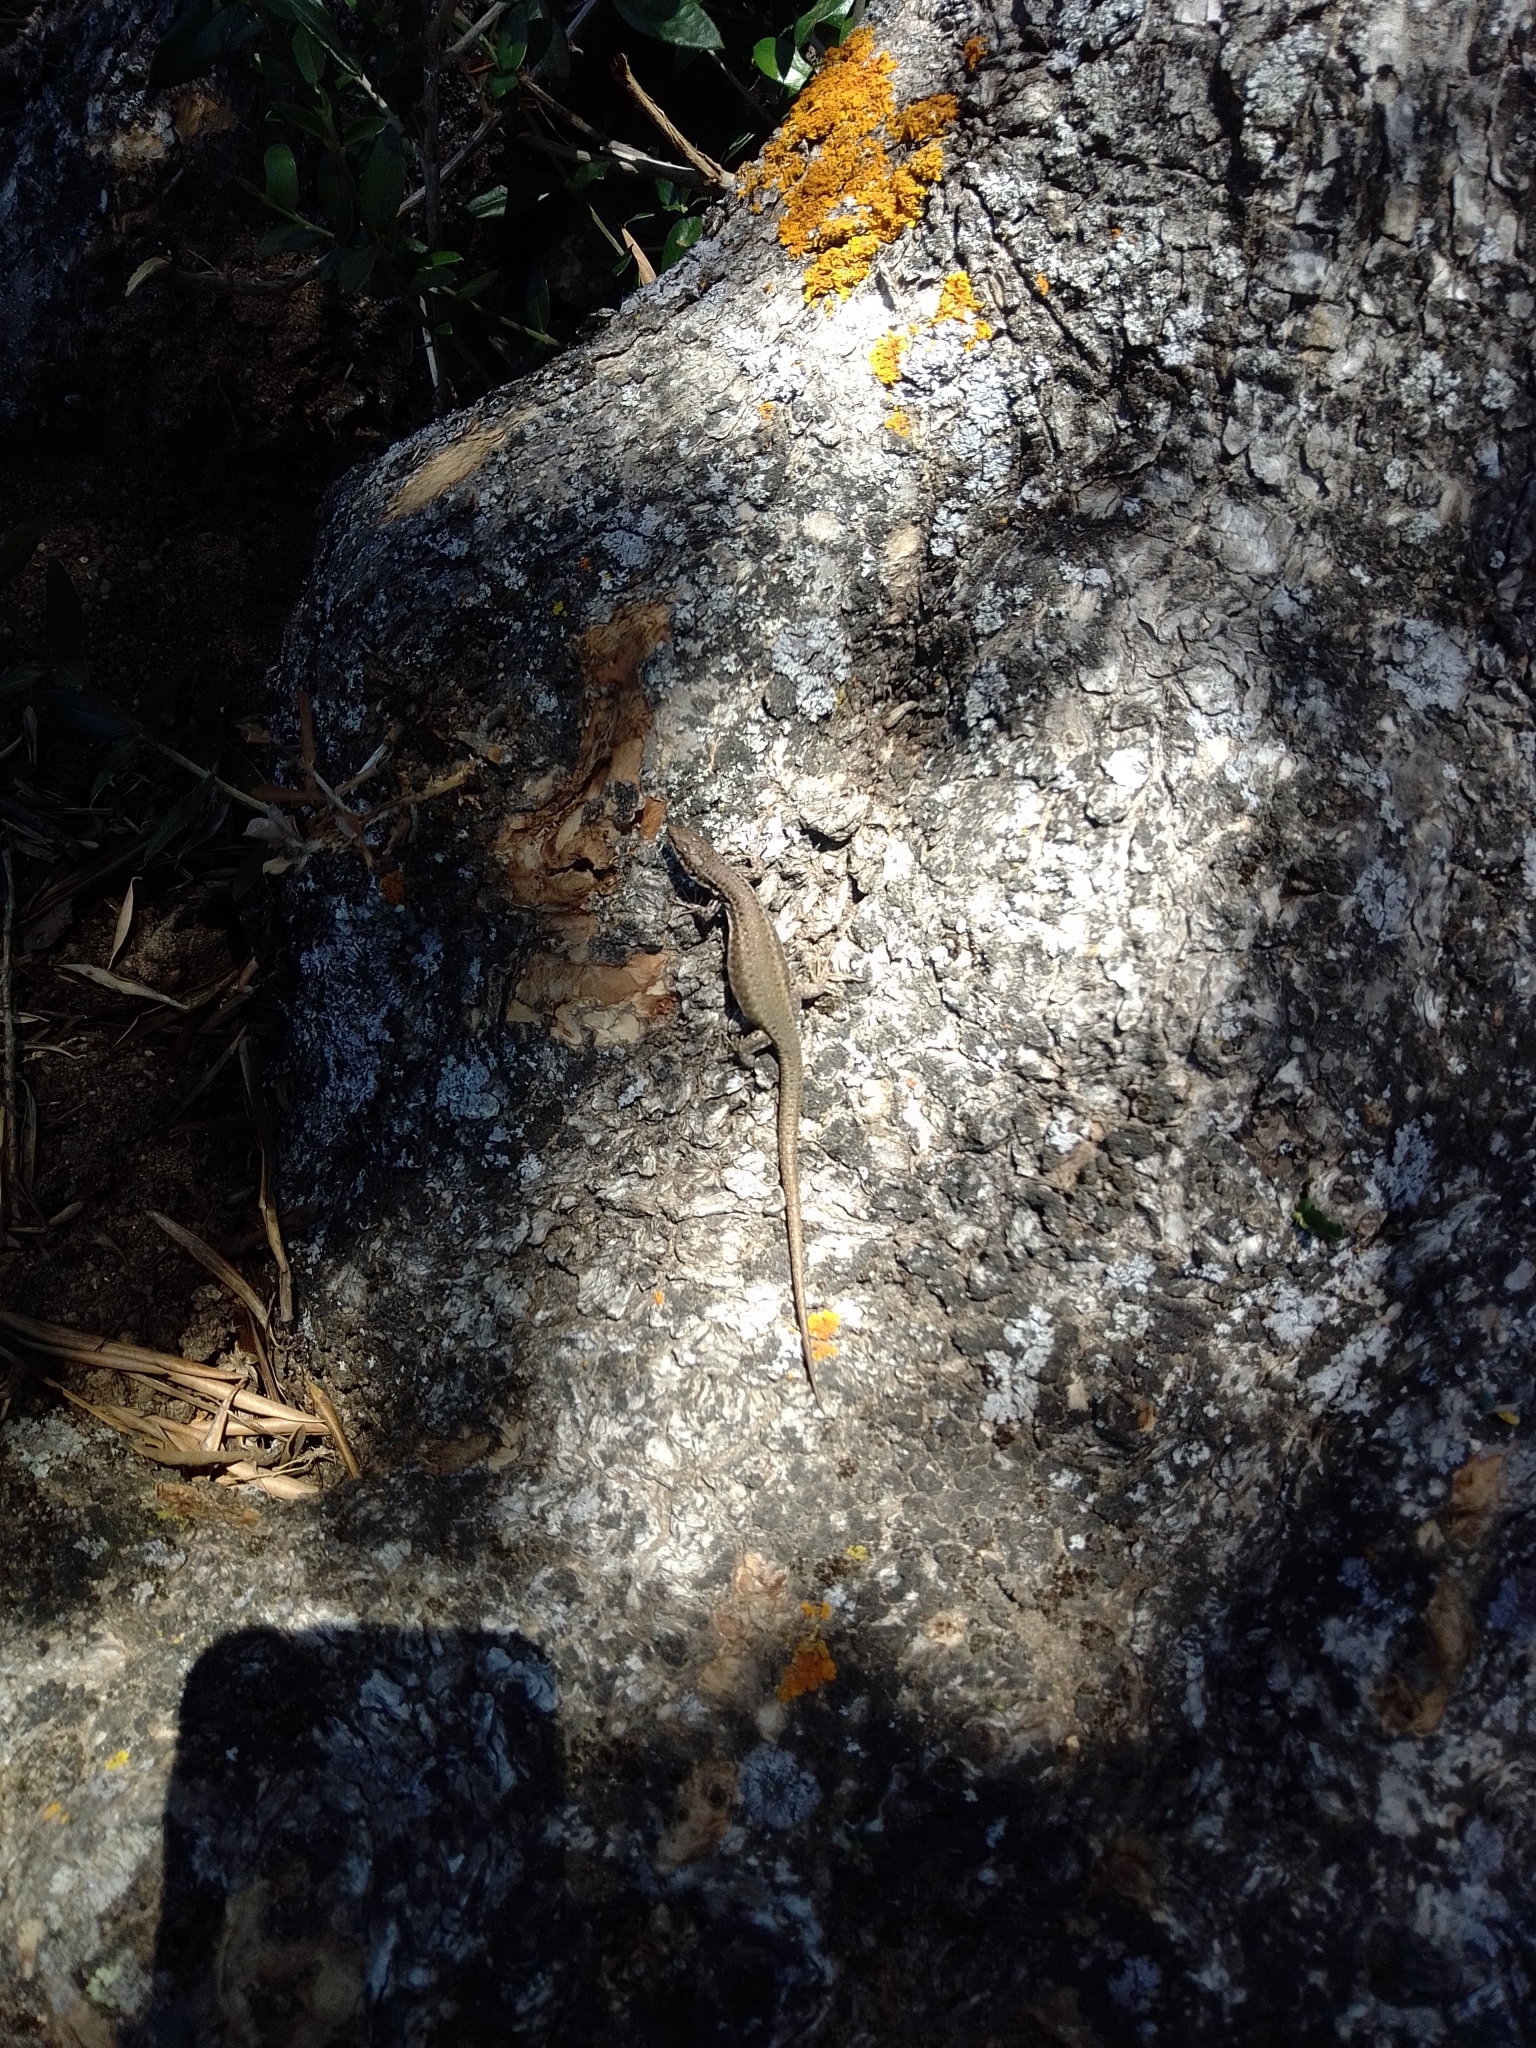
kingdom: Animalia
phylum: Chordata
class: Squamata
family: Lacertidae
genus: Podarcis
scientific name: Podarcis virescens
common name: Geniez’s wall lizard
